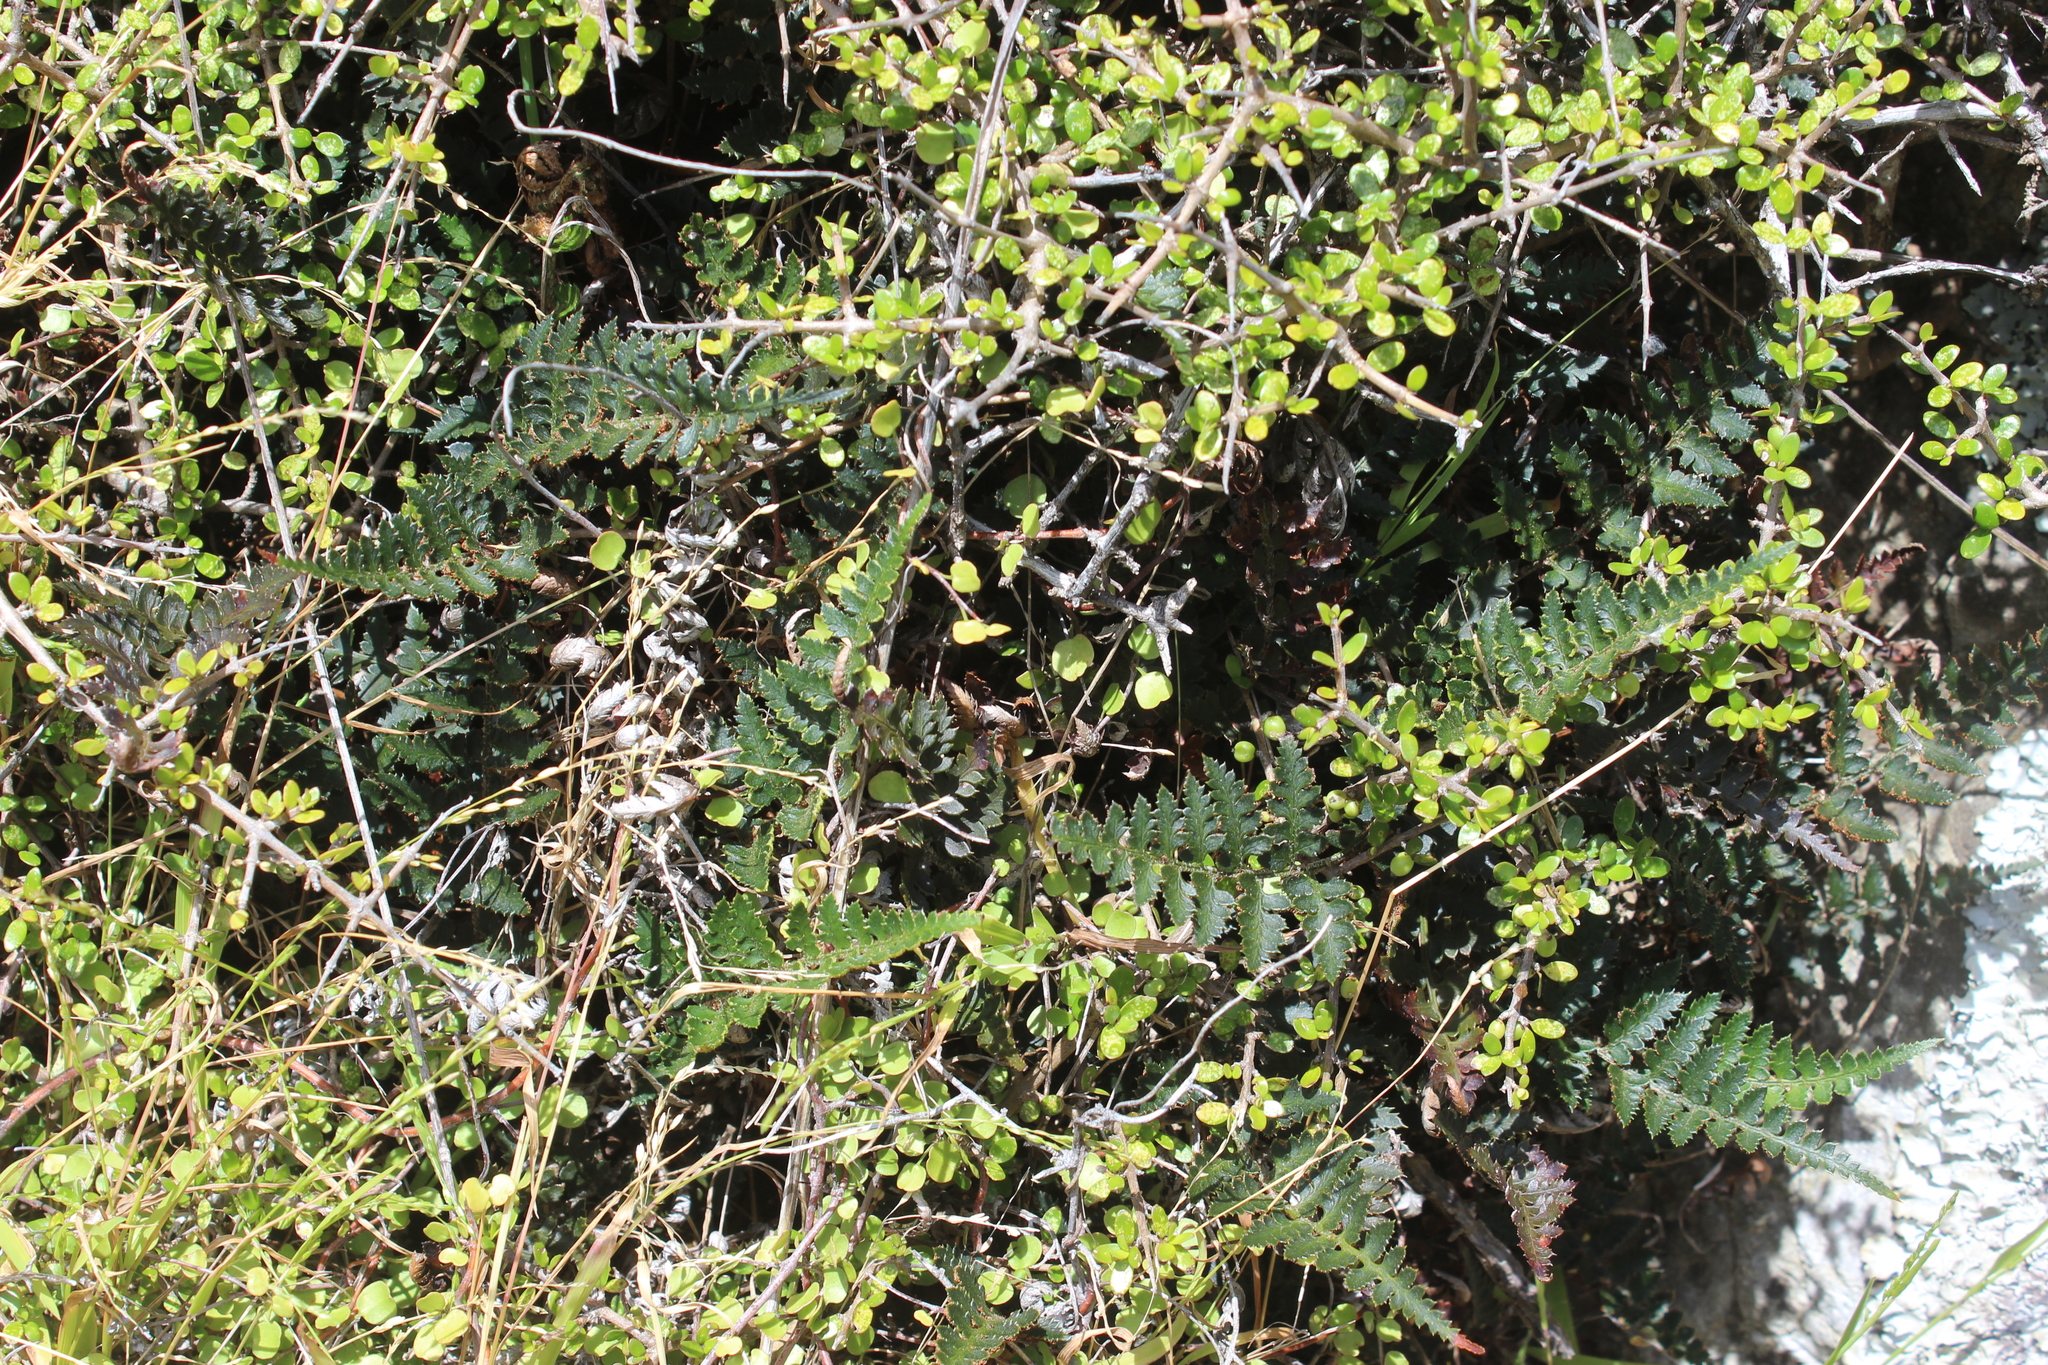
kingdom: Plantae
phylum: Tracheophyta
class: Polypodiopsida
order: Polypodiales
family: Dryopteridaceae
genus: Polystichum
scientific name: Polystichum oculatum
